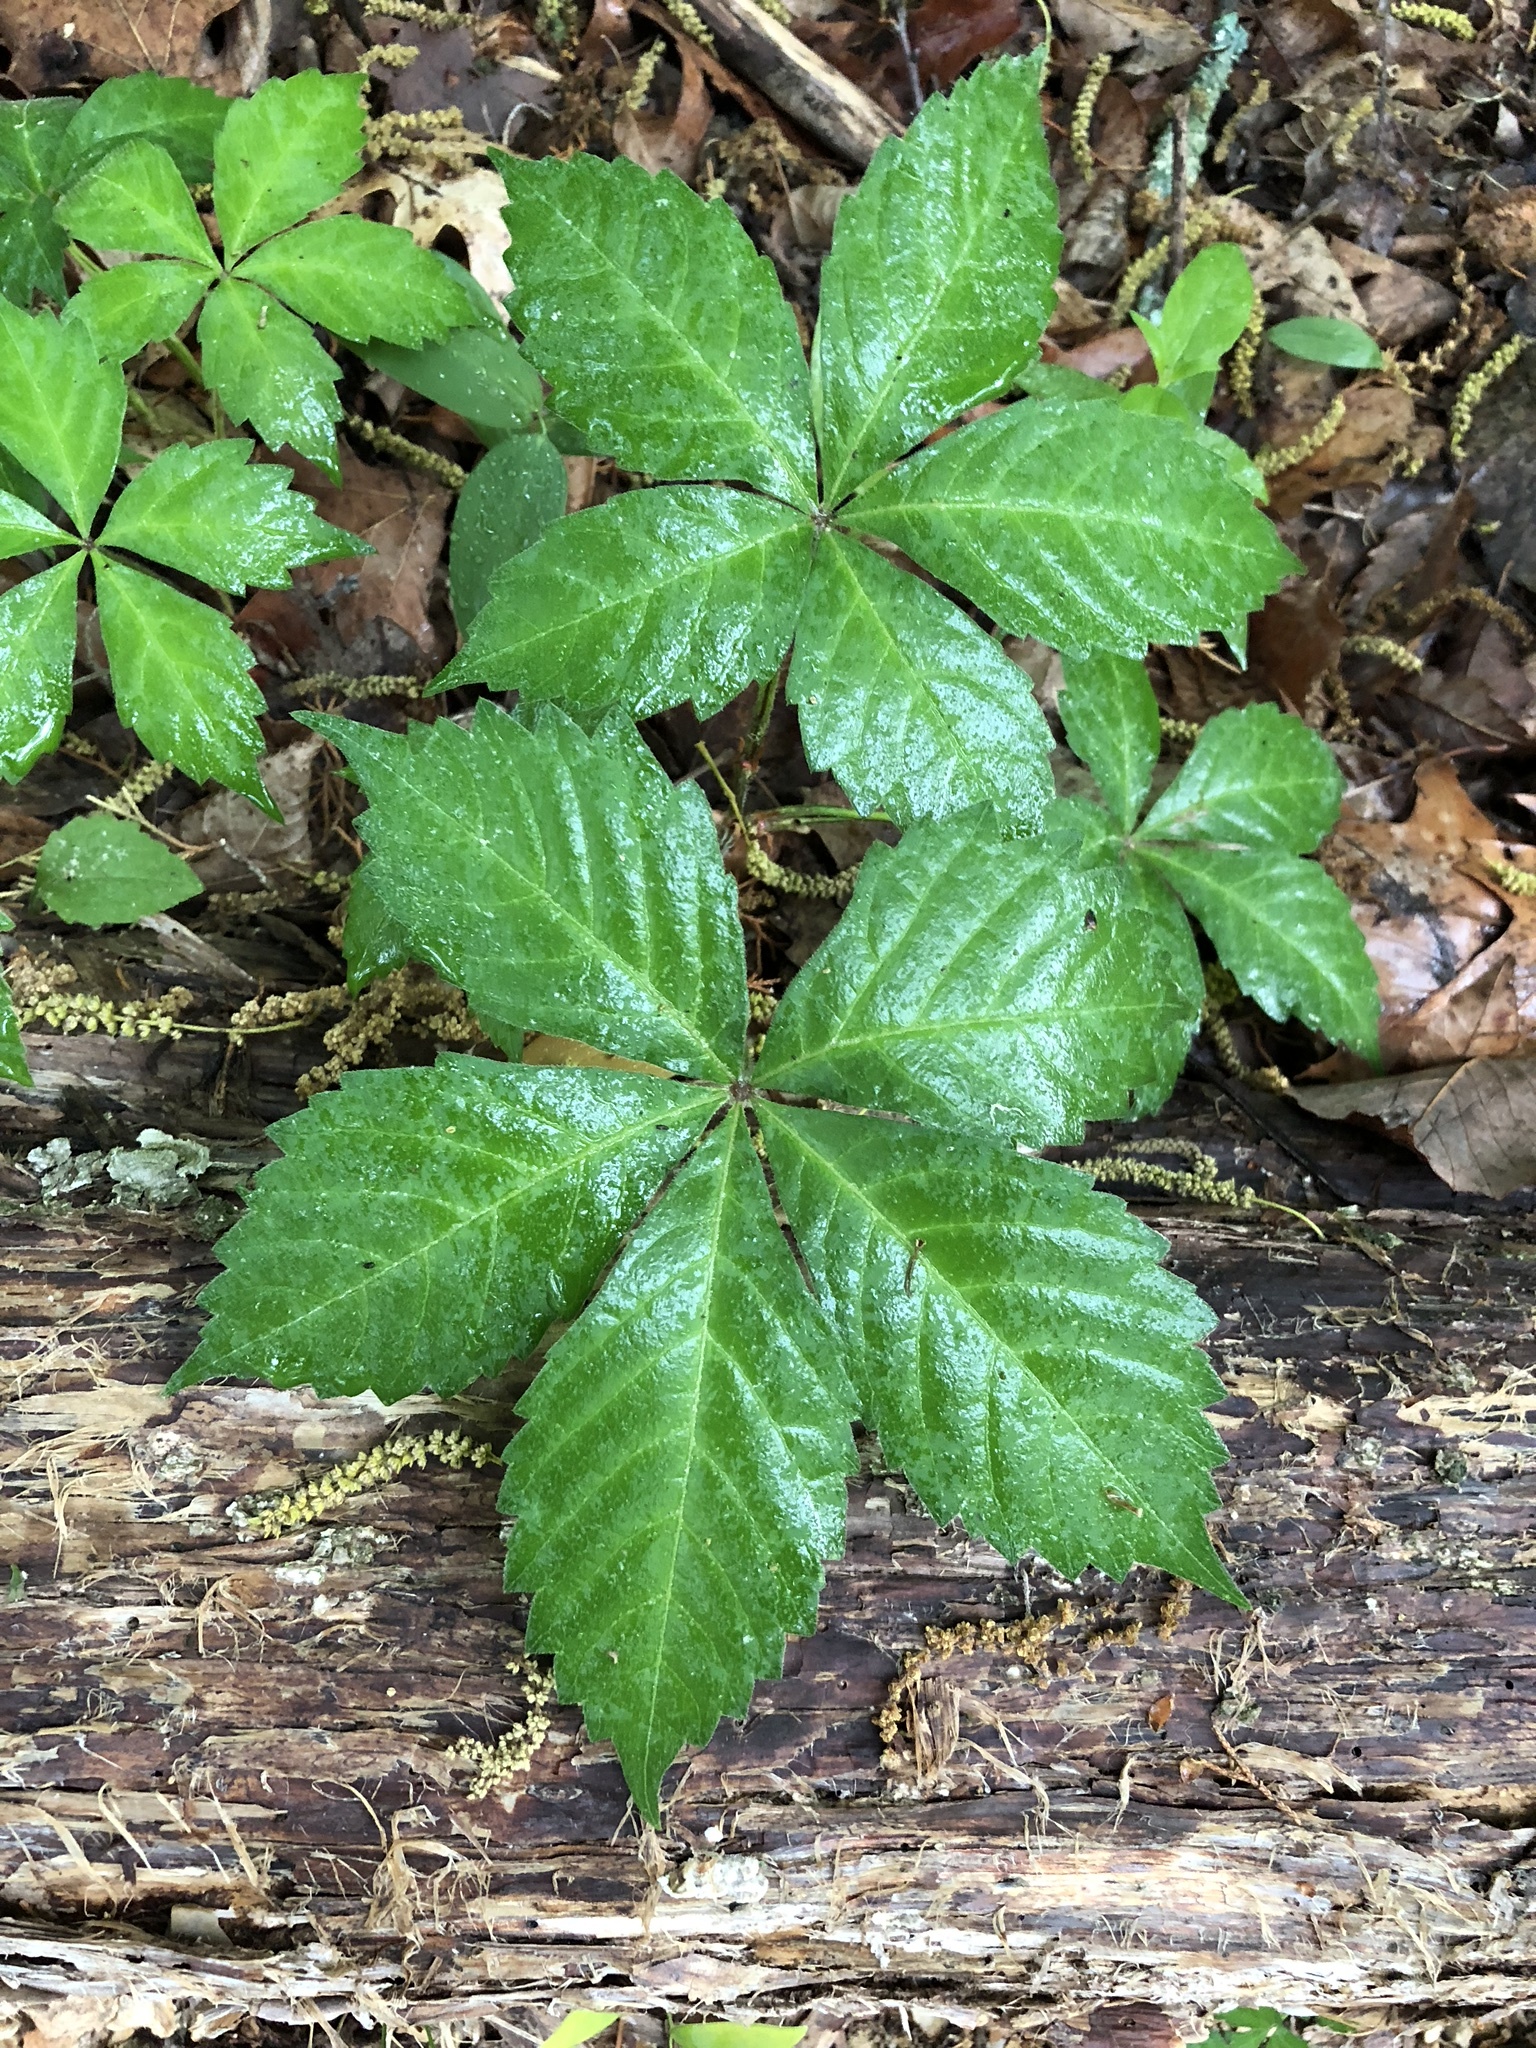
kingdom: Plantae
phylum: Tracheophyta
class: Magnoliopsida
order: Vitales
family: Vitaceae
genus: Parthenocissus
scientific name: Parthenocissus quinquefolia
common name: Virginia-creeper
